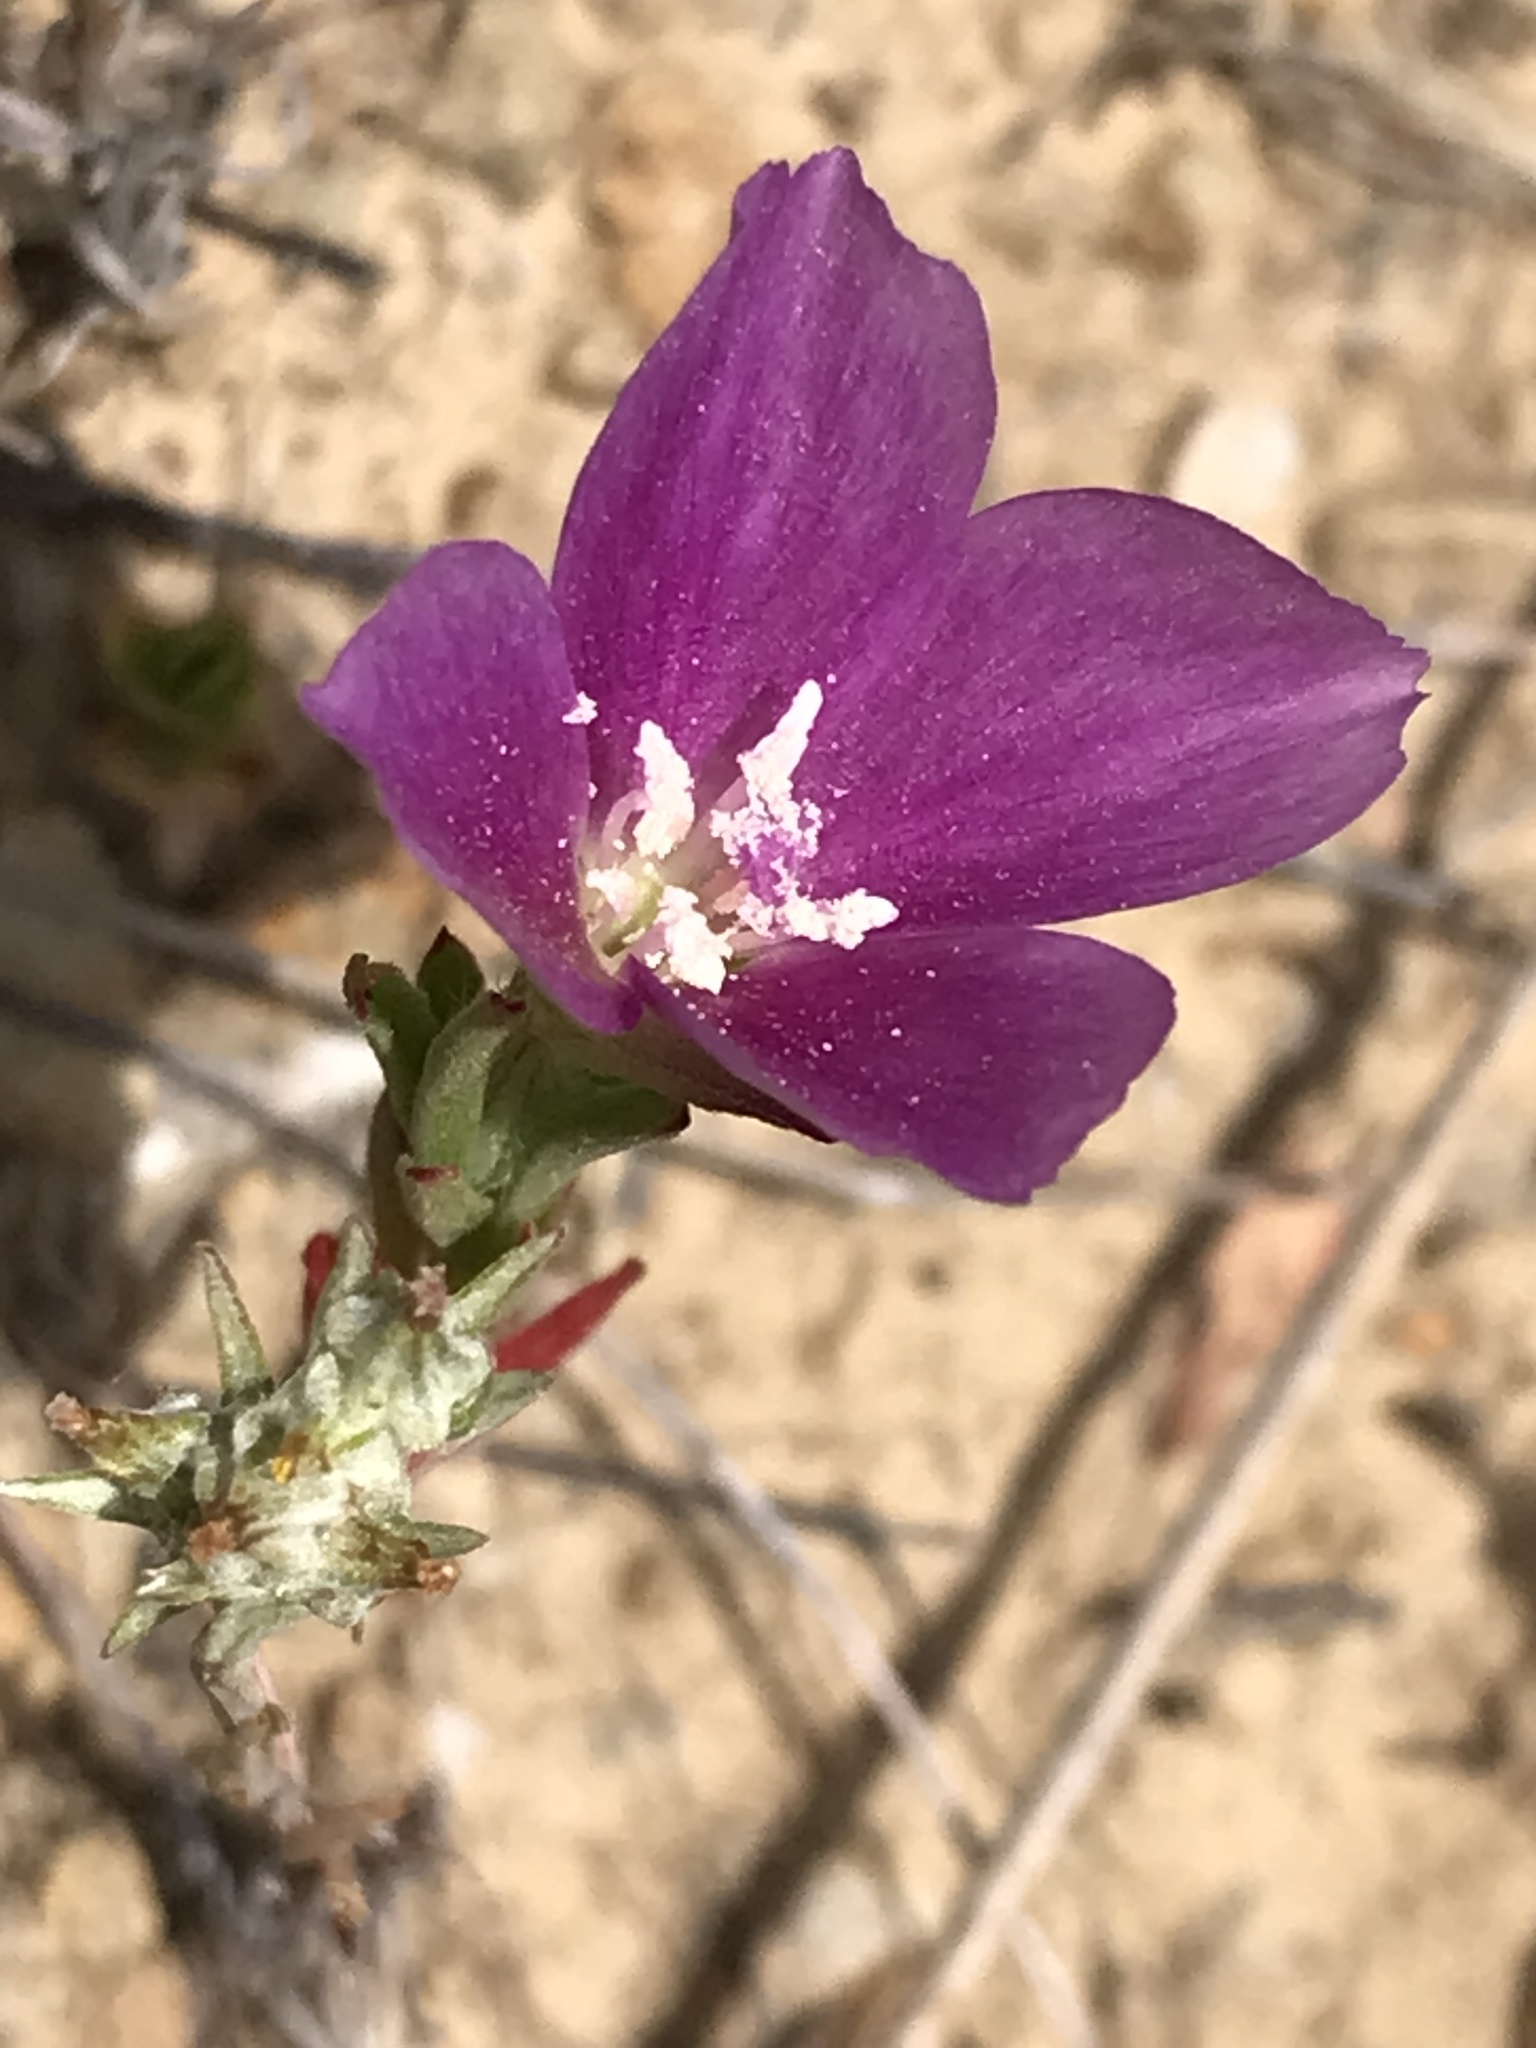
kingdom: Plantae
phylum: Tracheophyta
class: Magnoliopsida
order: Myrtales
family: Onagraceae
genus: Clarkia
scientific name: Clarkia purpurea
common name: Purple clarkia
